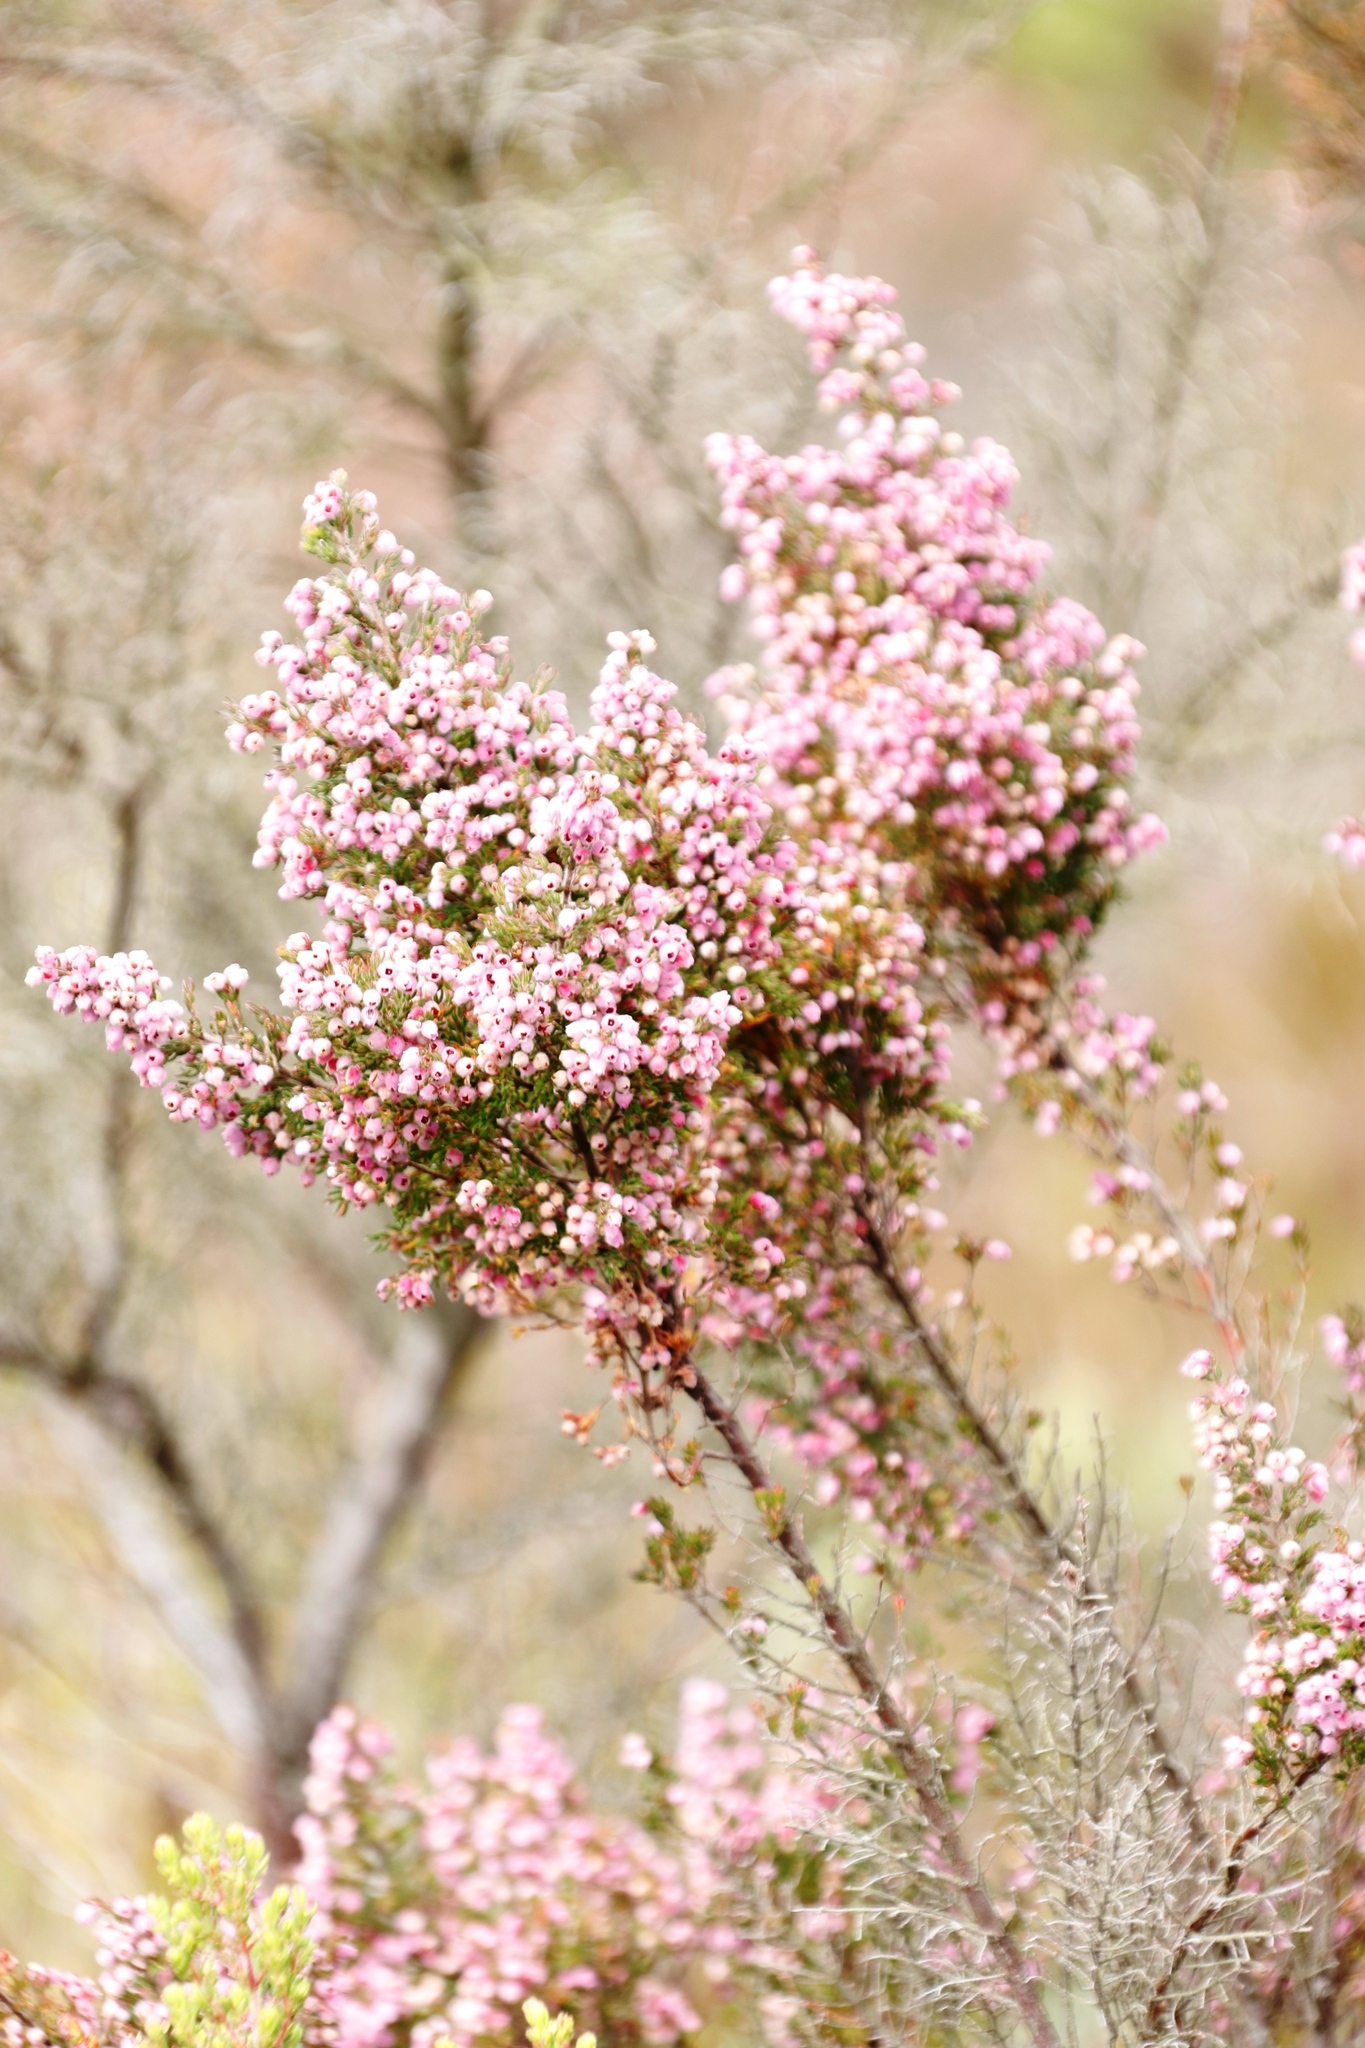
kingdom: Plantae
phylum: Tracheophyta
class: Magnoliopsida
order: Ericales
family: Ericaceae
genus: Erica
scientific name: Erica hirtiflora
